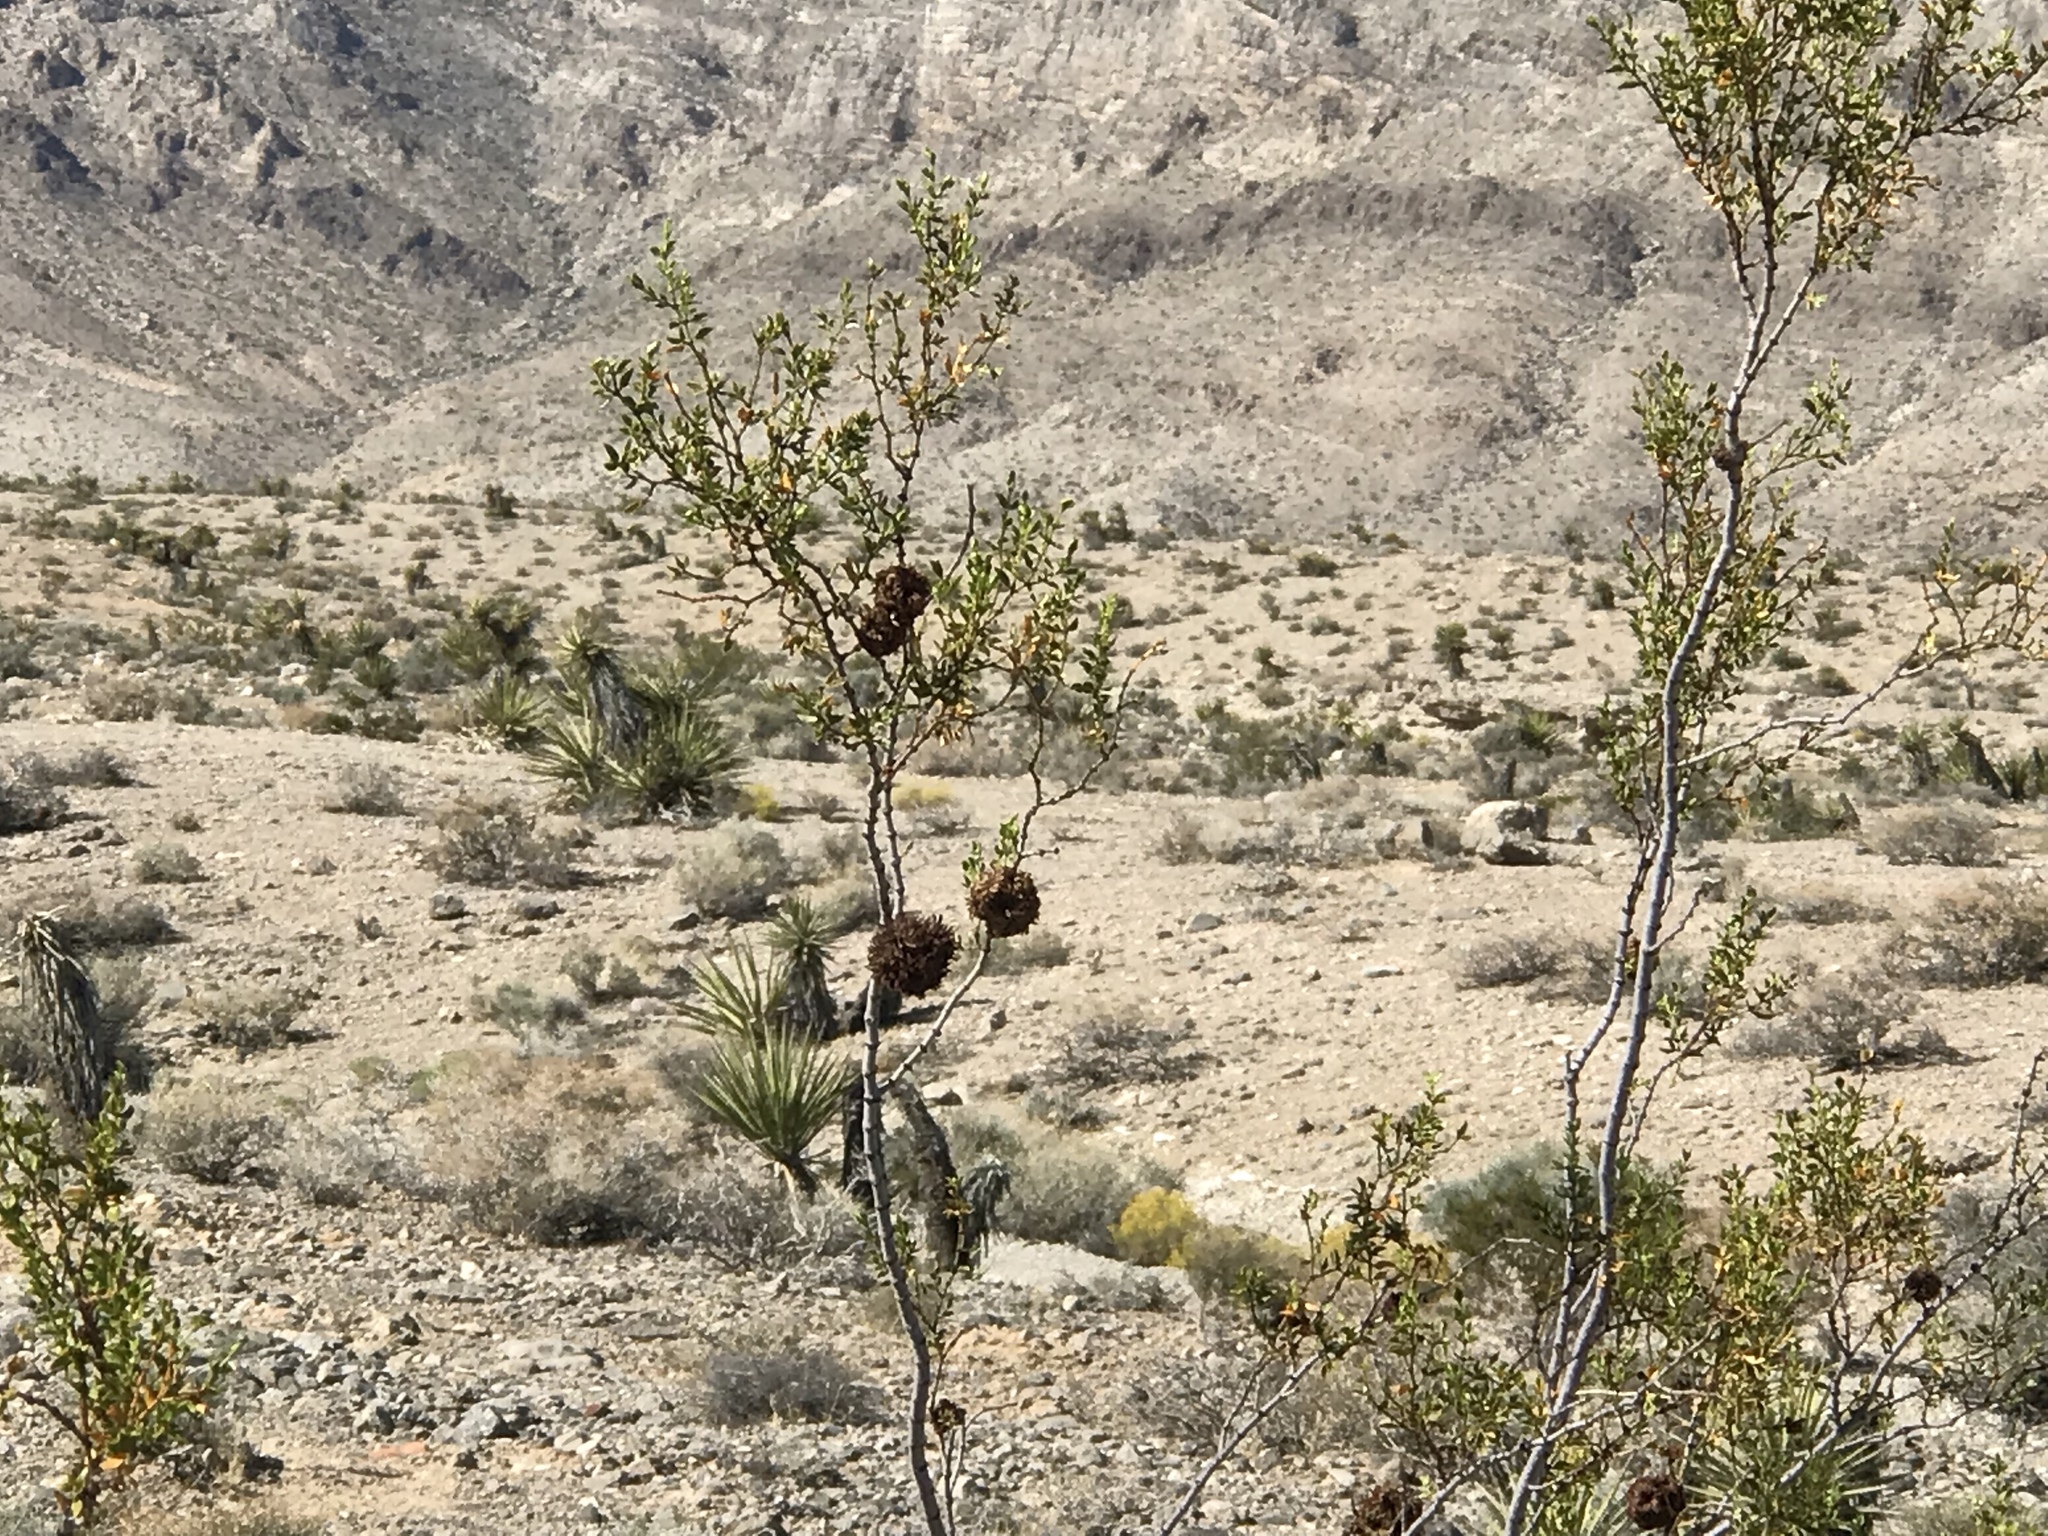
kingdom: Animalia
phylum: Arthropoda
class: Insecta
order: Diptera
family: Cecidomyiidae
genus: Asphondylia
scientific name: Asphondylia auripila
